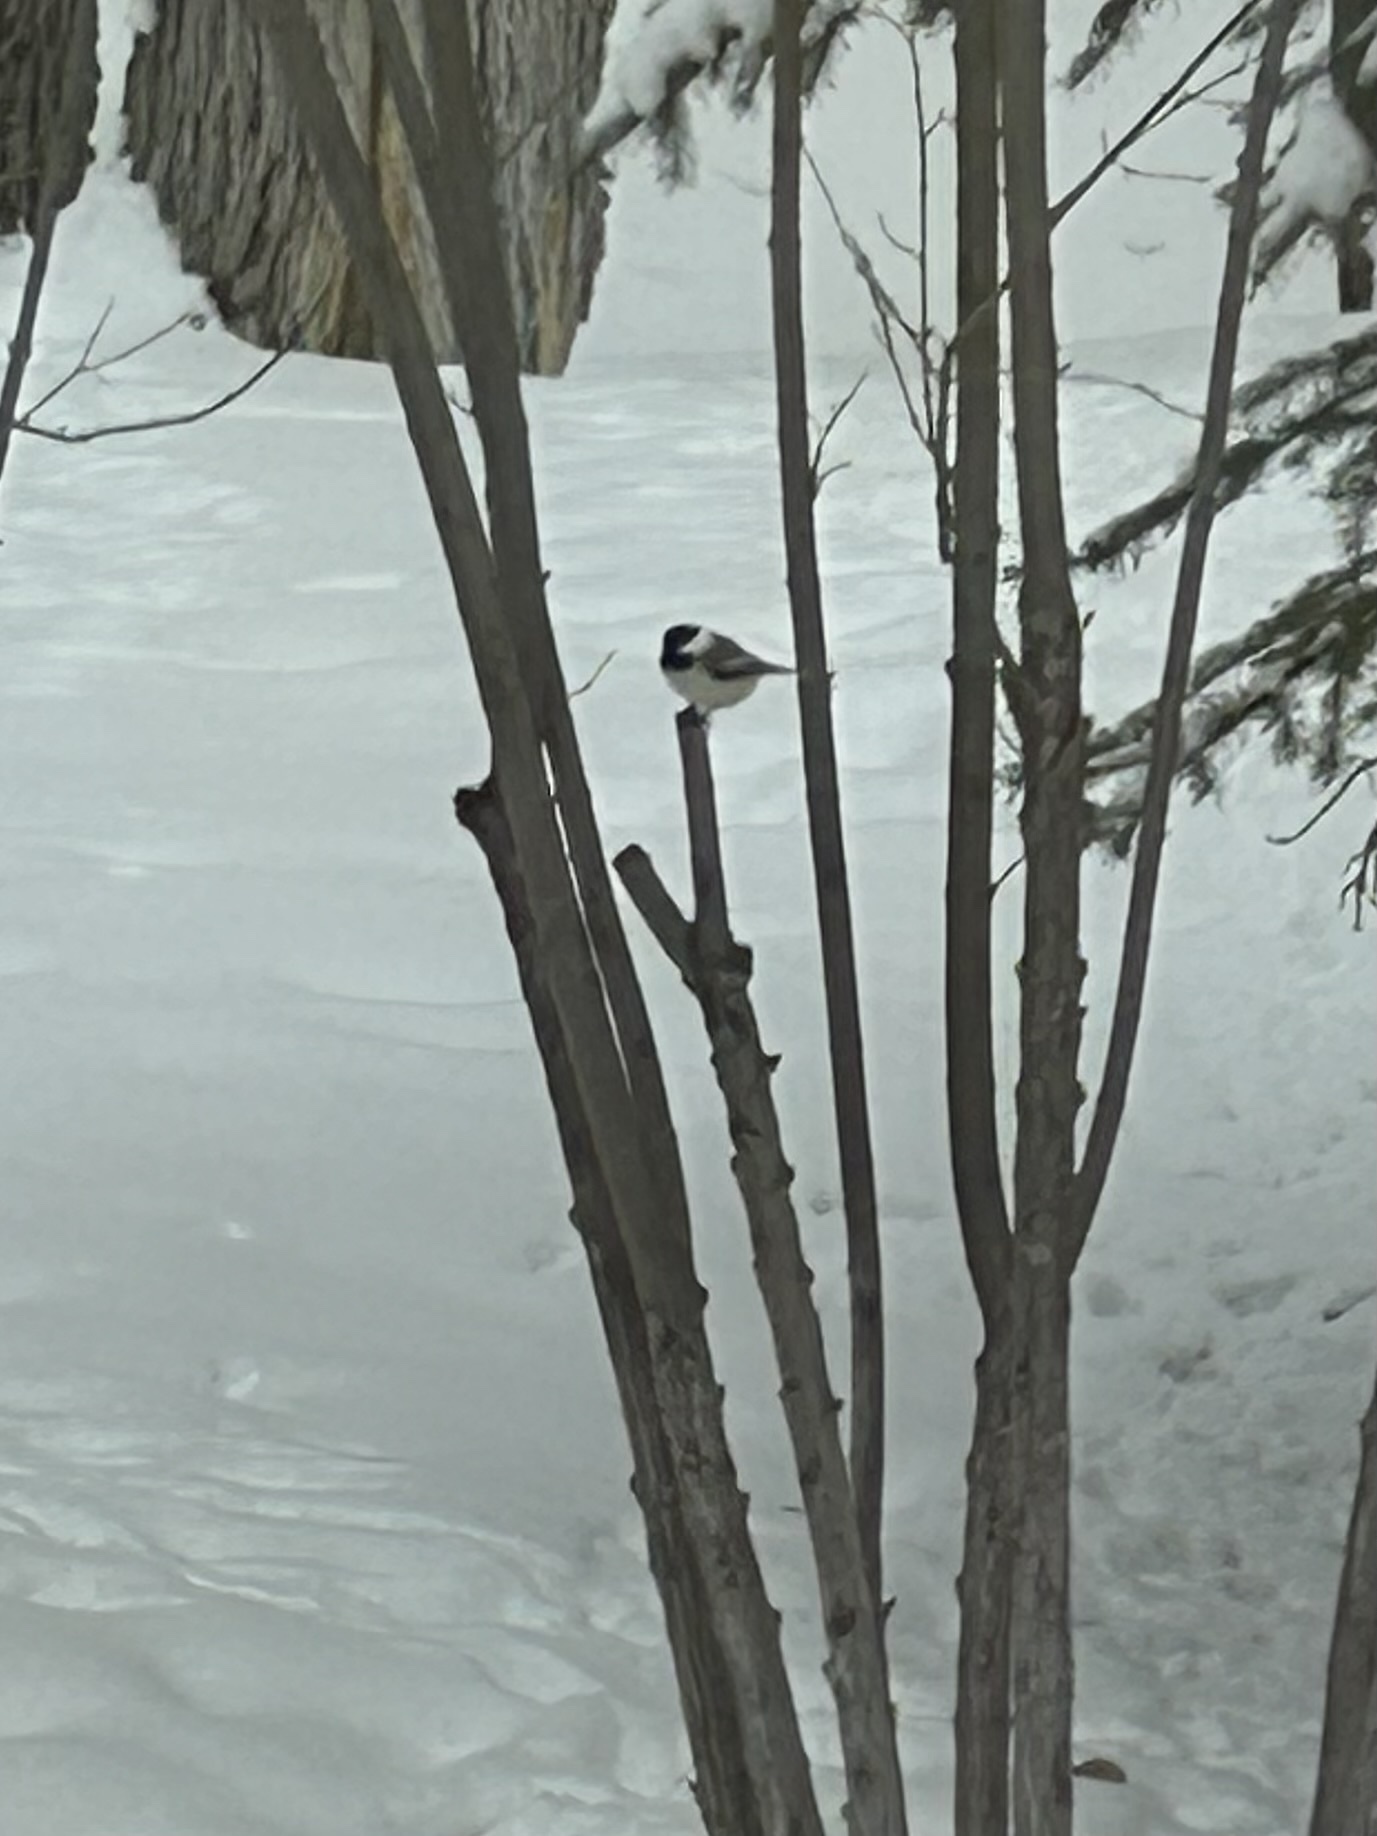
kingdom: Animalia
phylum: Chordata
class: Aves
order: Passeriformes
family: Paridae
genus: Poecile
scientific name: Poecile atricapillus
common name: Black-capped chickadee
